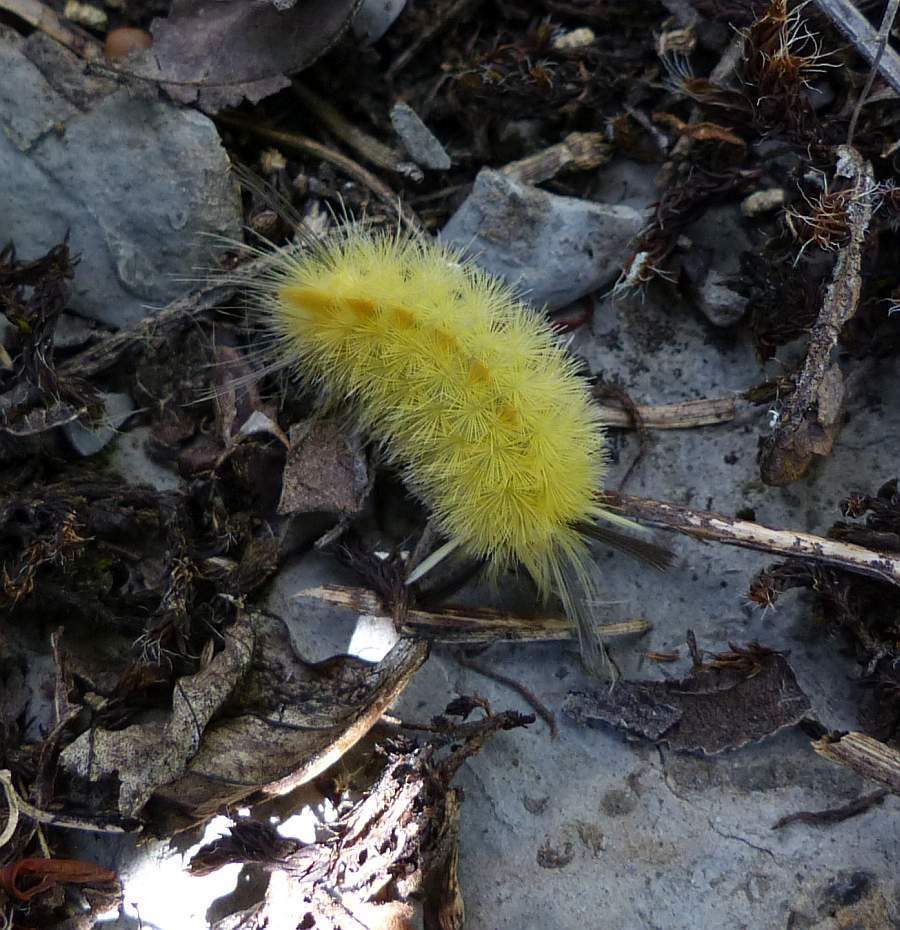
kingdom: Animalia
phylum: Arthropoda
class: Insecta
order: Lepidoptera
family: Erebidae
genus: Halysidota
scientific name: Halysidota tessellaris
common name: Banded tussock moth
